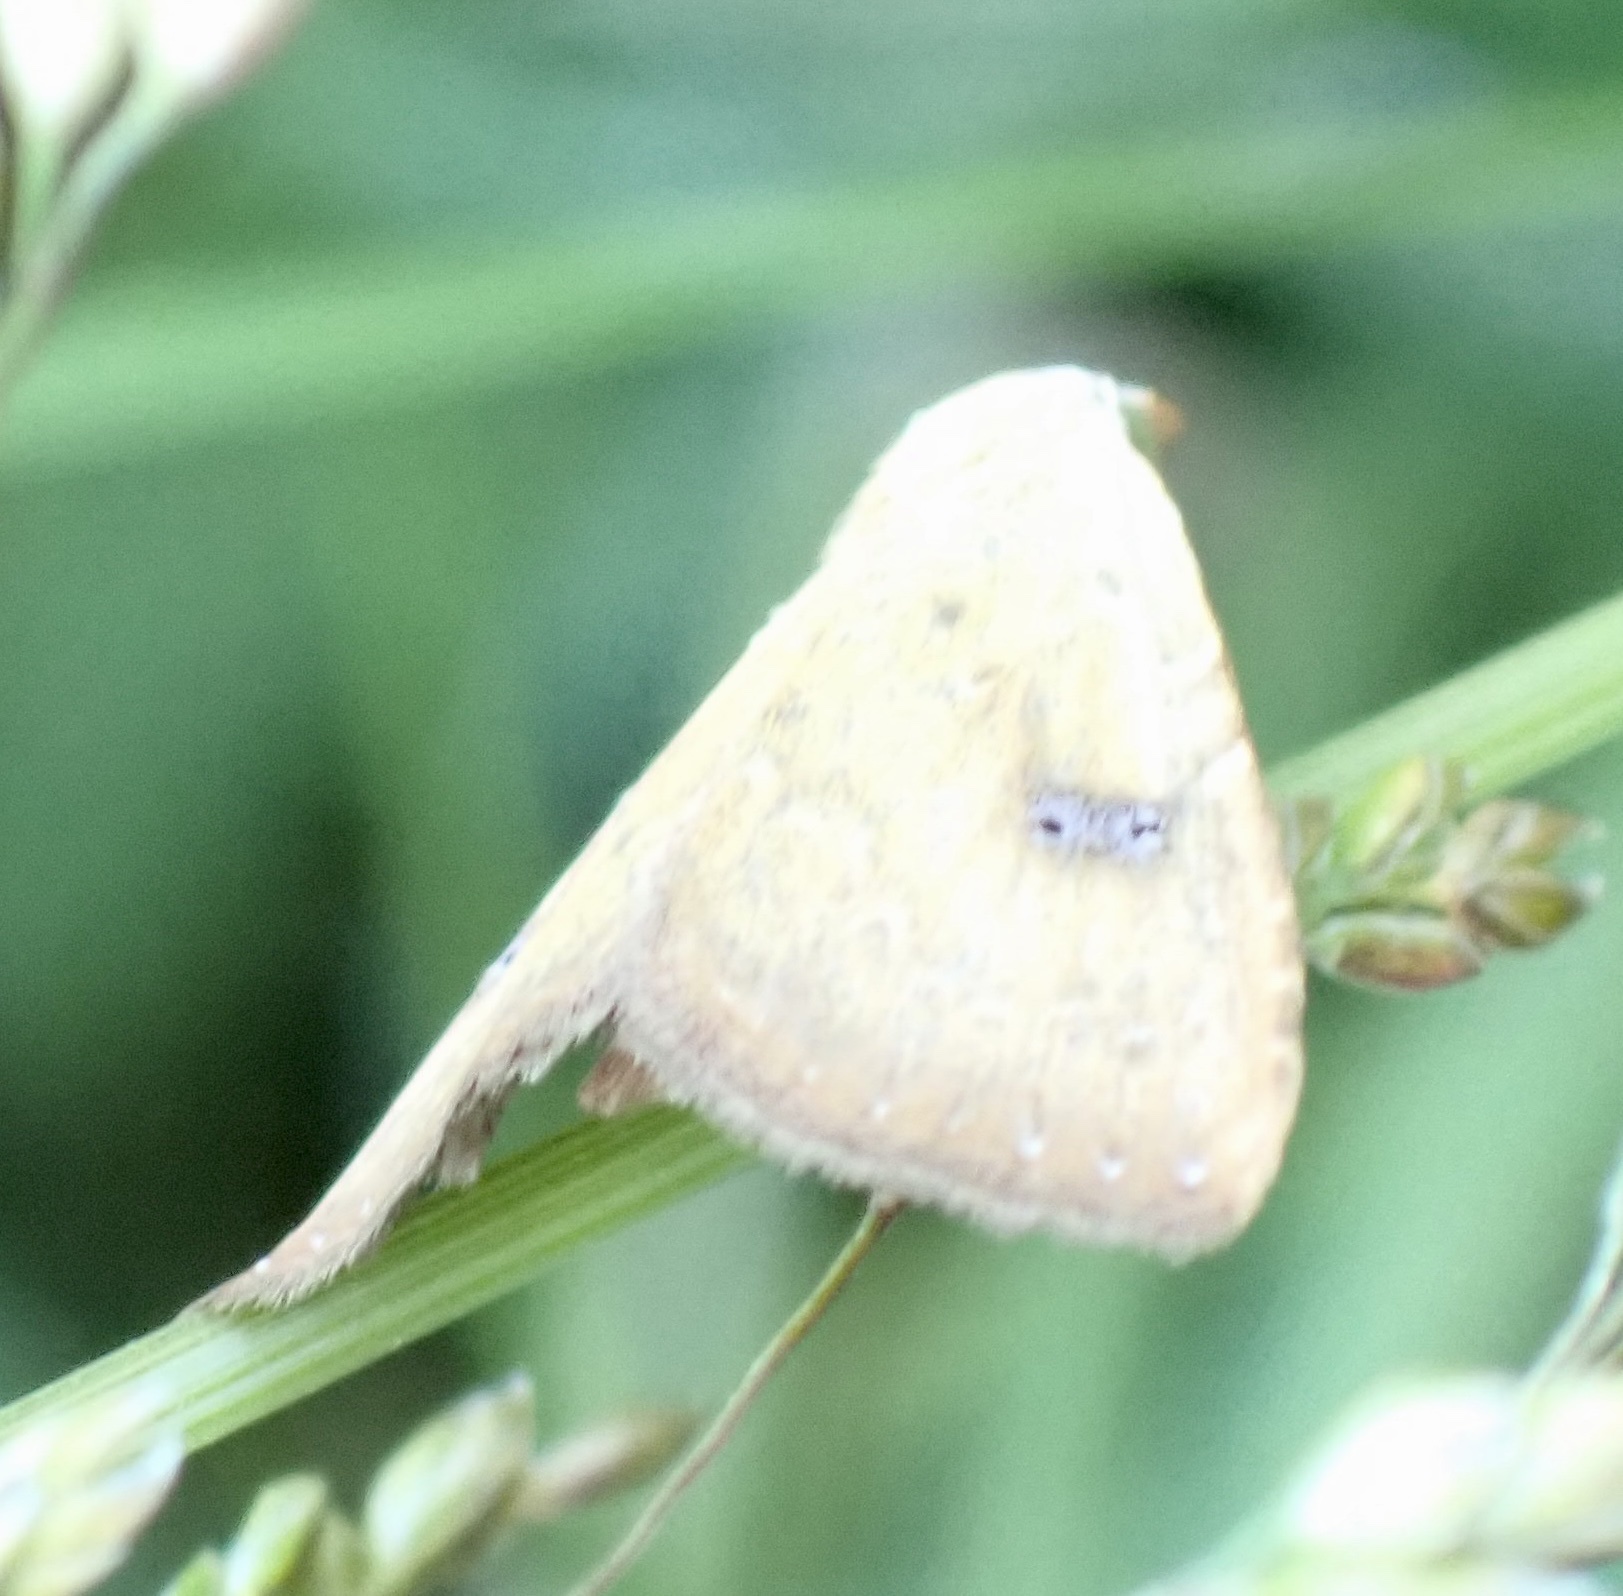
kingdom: Animalia
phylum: Arthropoda
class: Insecta
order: Lepidoptera
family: Erebidae
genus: Rivula
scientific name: Rivula sericealis
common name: Straw dot
